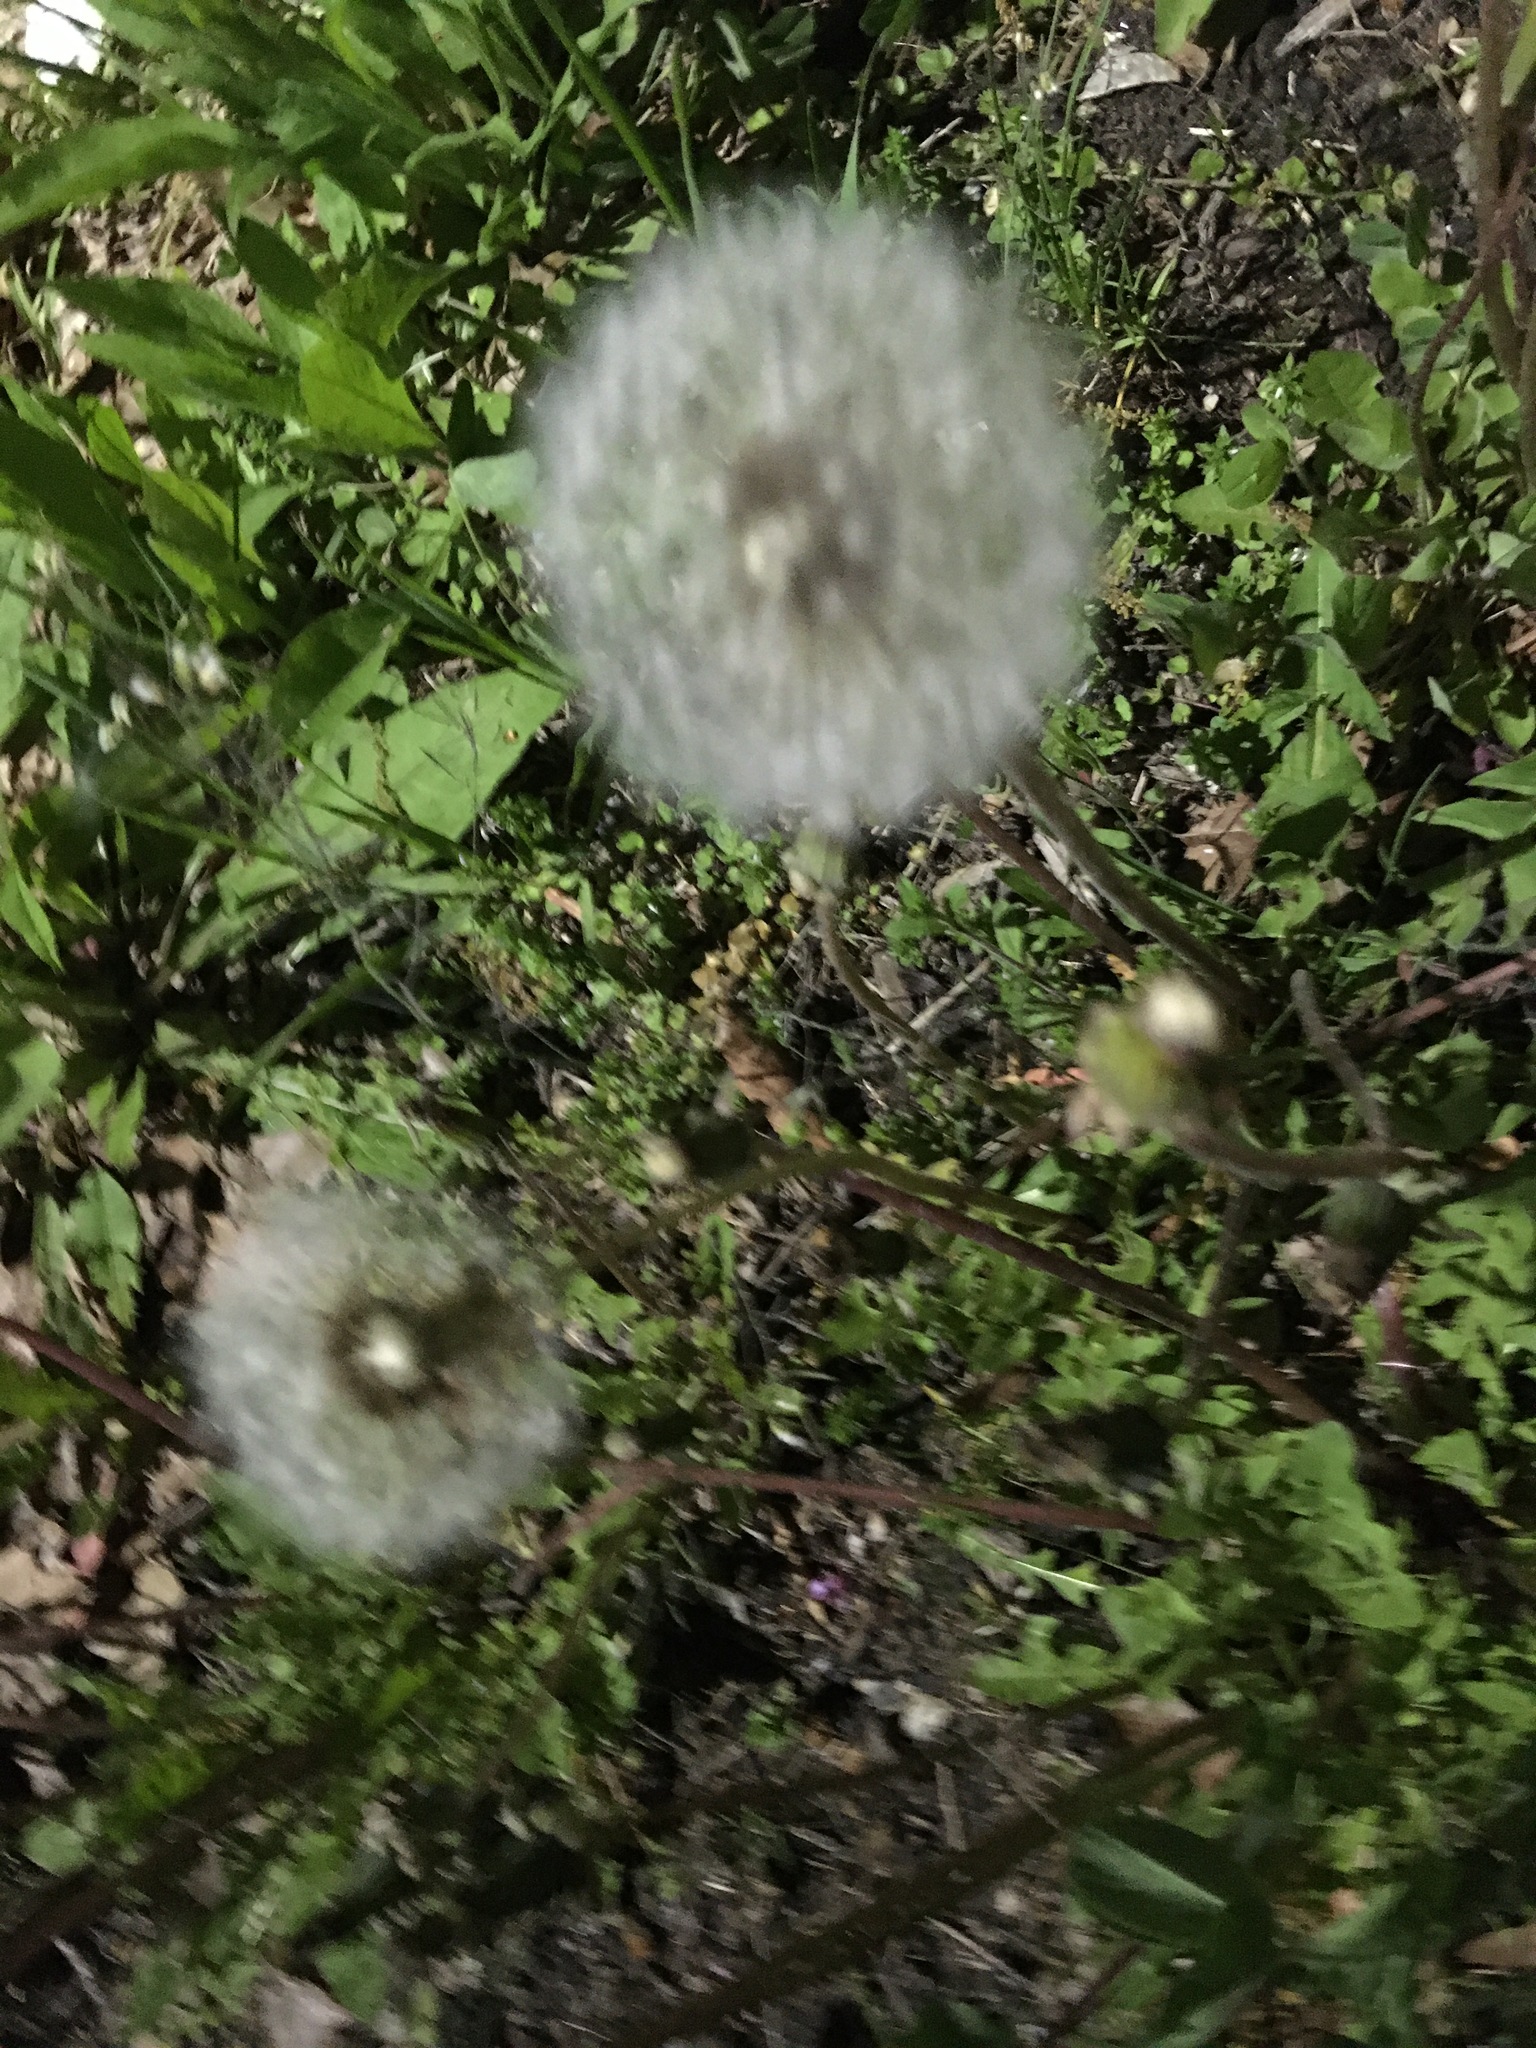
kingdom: Plantae
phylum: Tracheophyta
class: Magnoliopsida
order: Asterales
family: Asteraceae
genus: Taraxacum
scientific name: Taraxacum officinale
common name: Common dandelion
